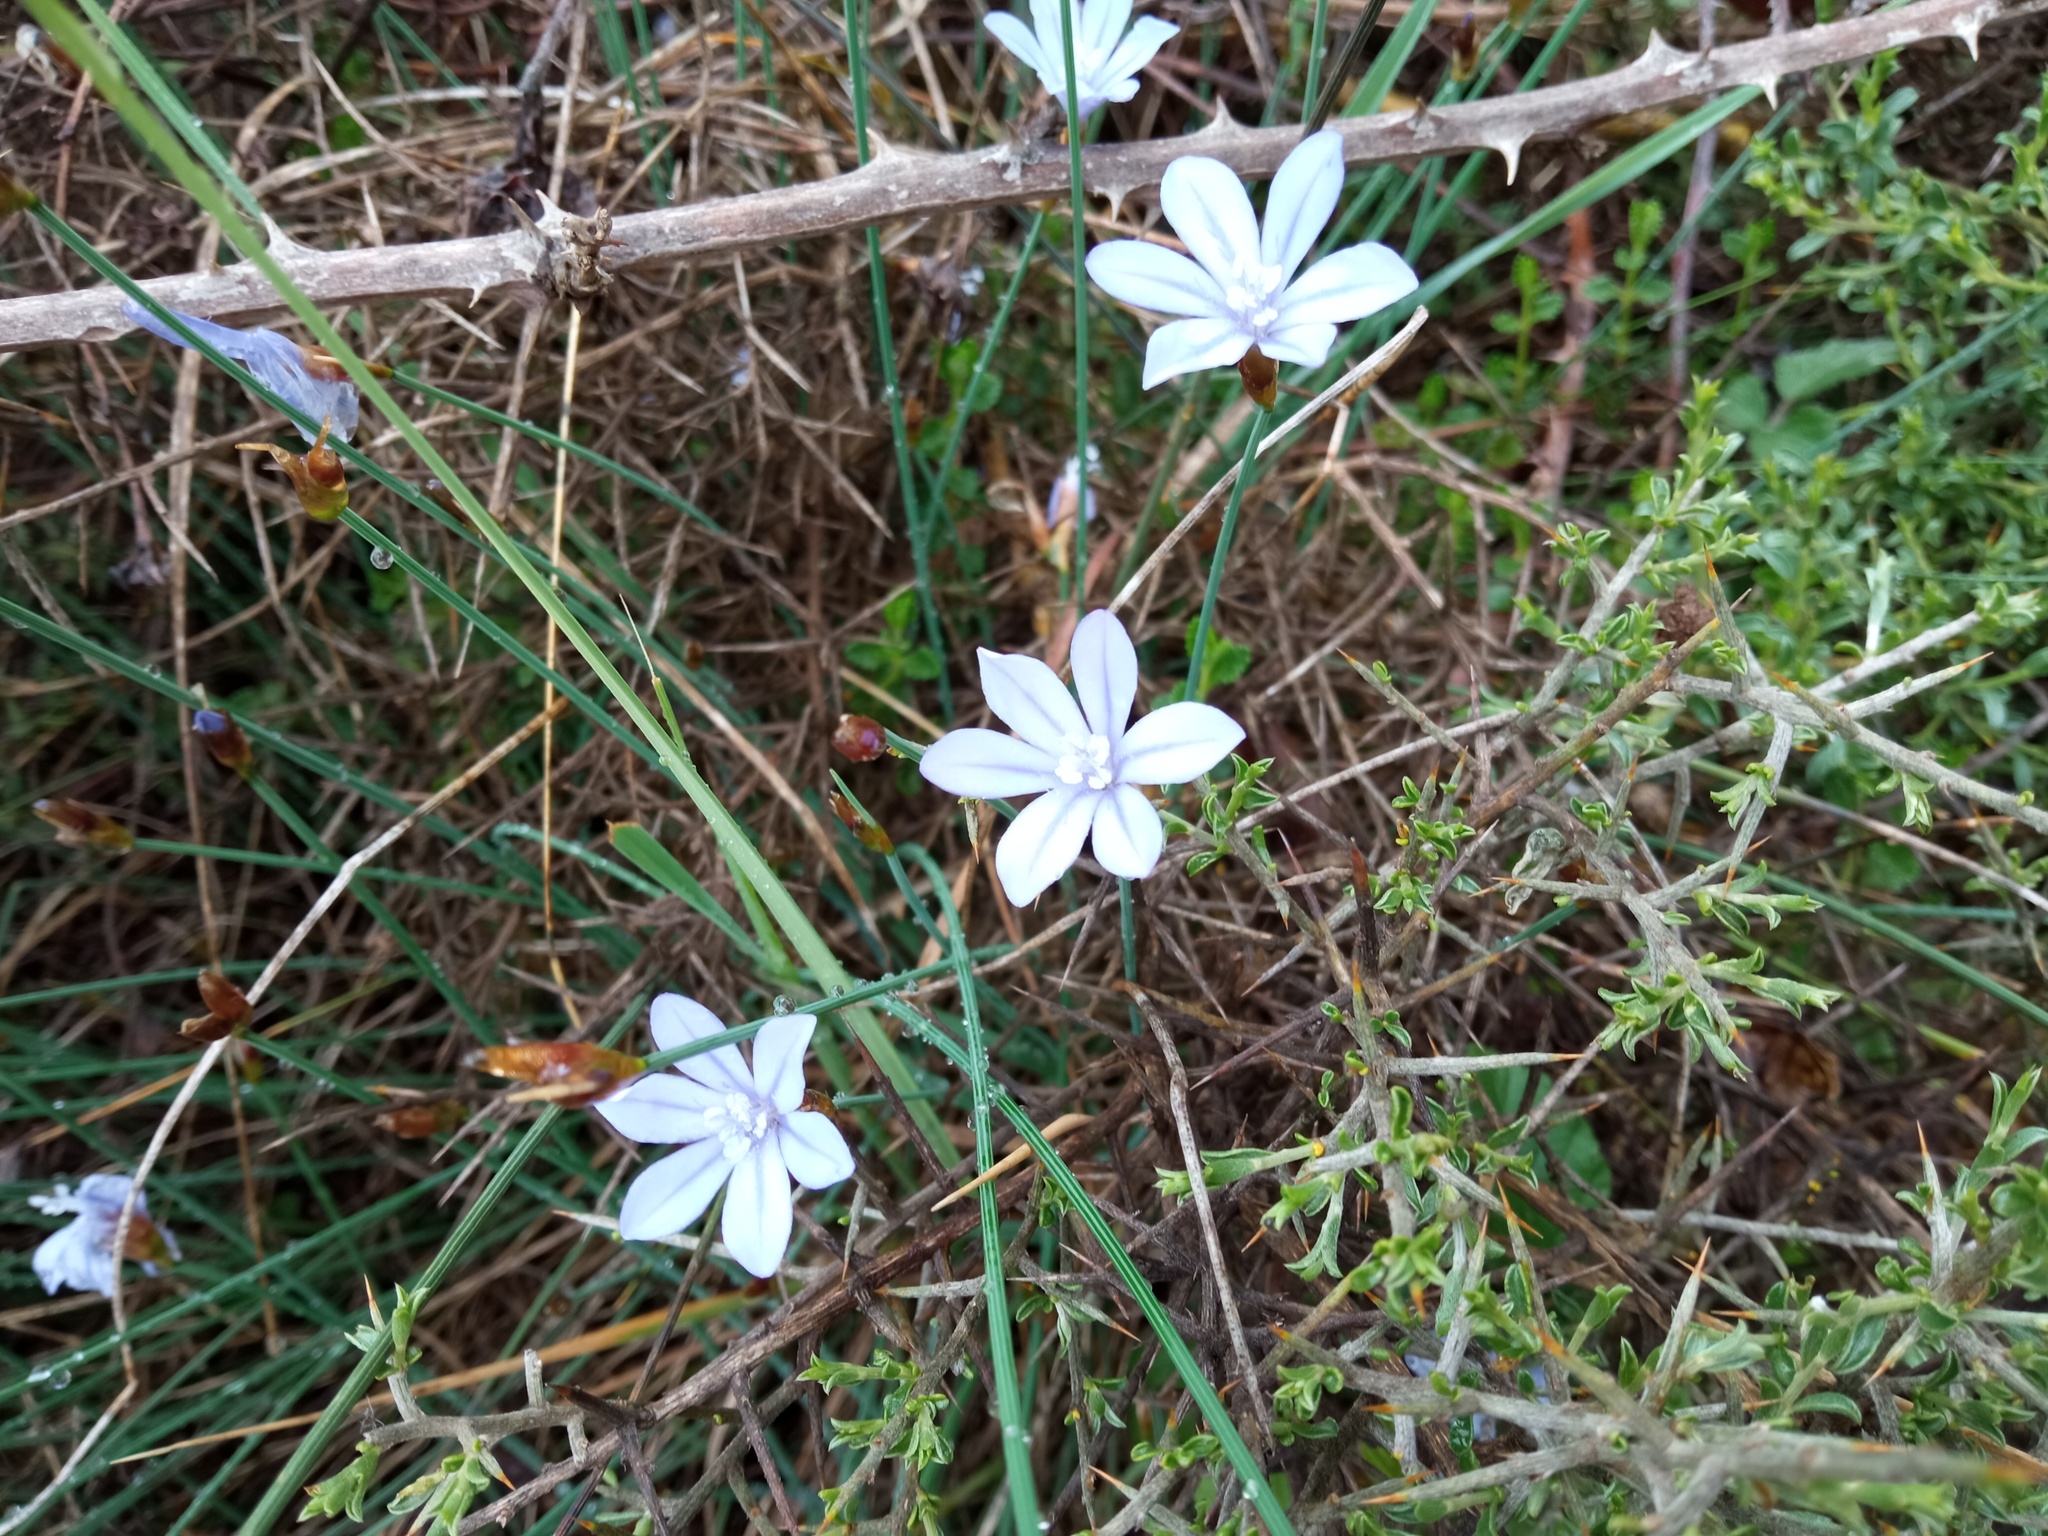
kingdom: Plantae
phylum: Tracheophyta
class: Liliopsida
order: Asparagales
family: Asparagaceae
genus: Aphyllanthes
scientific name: Aphyllanthes monspeliensis
